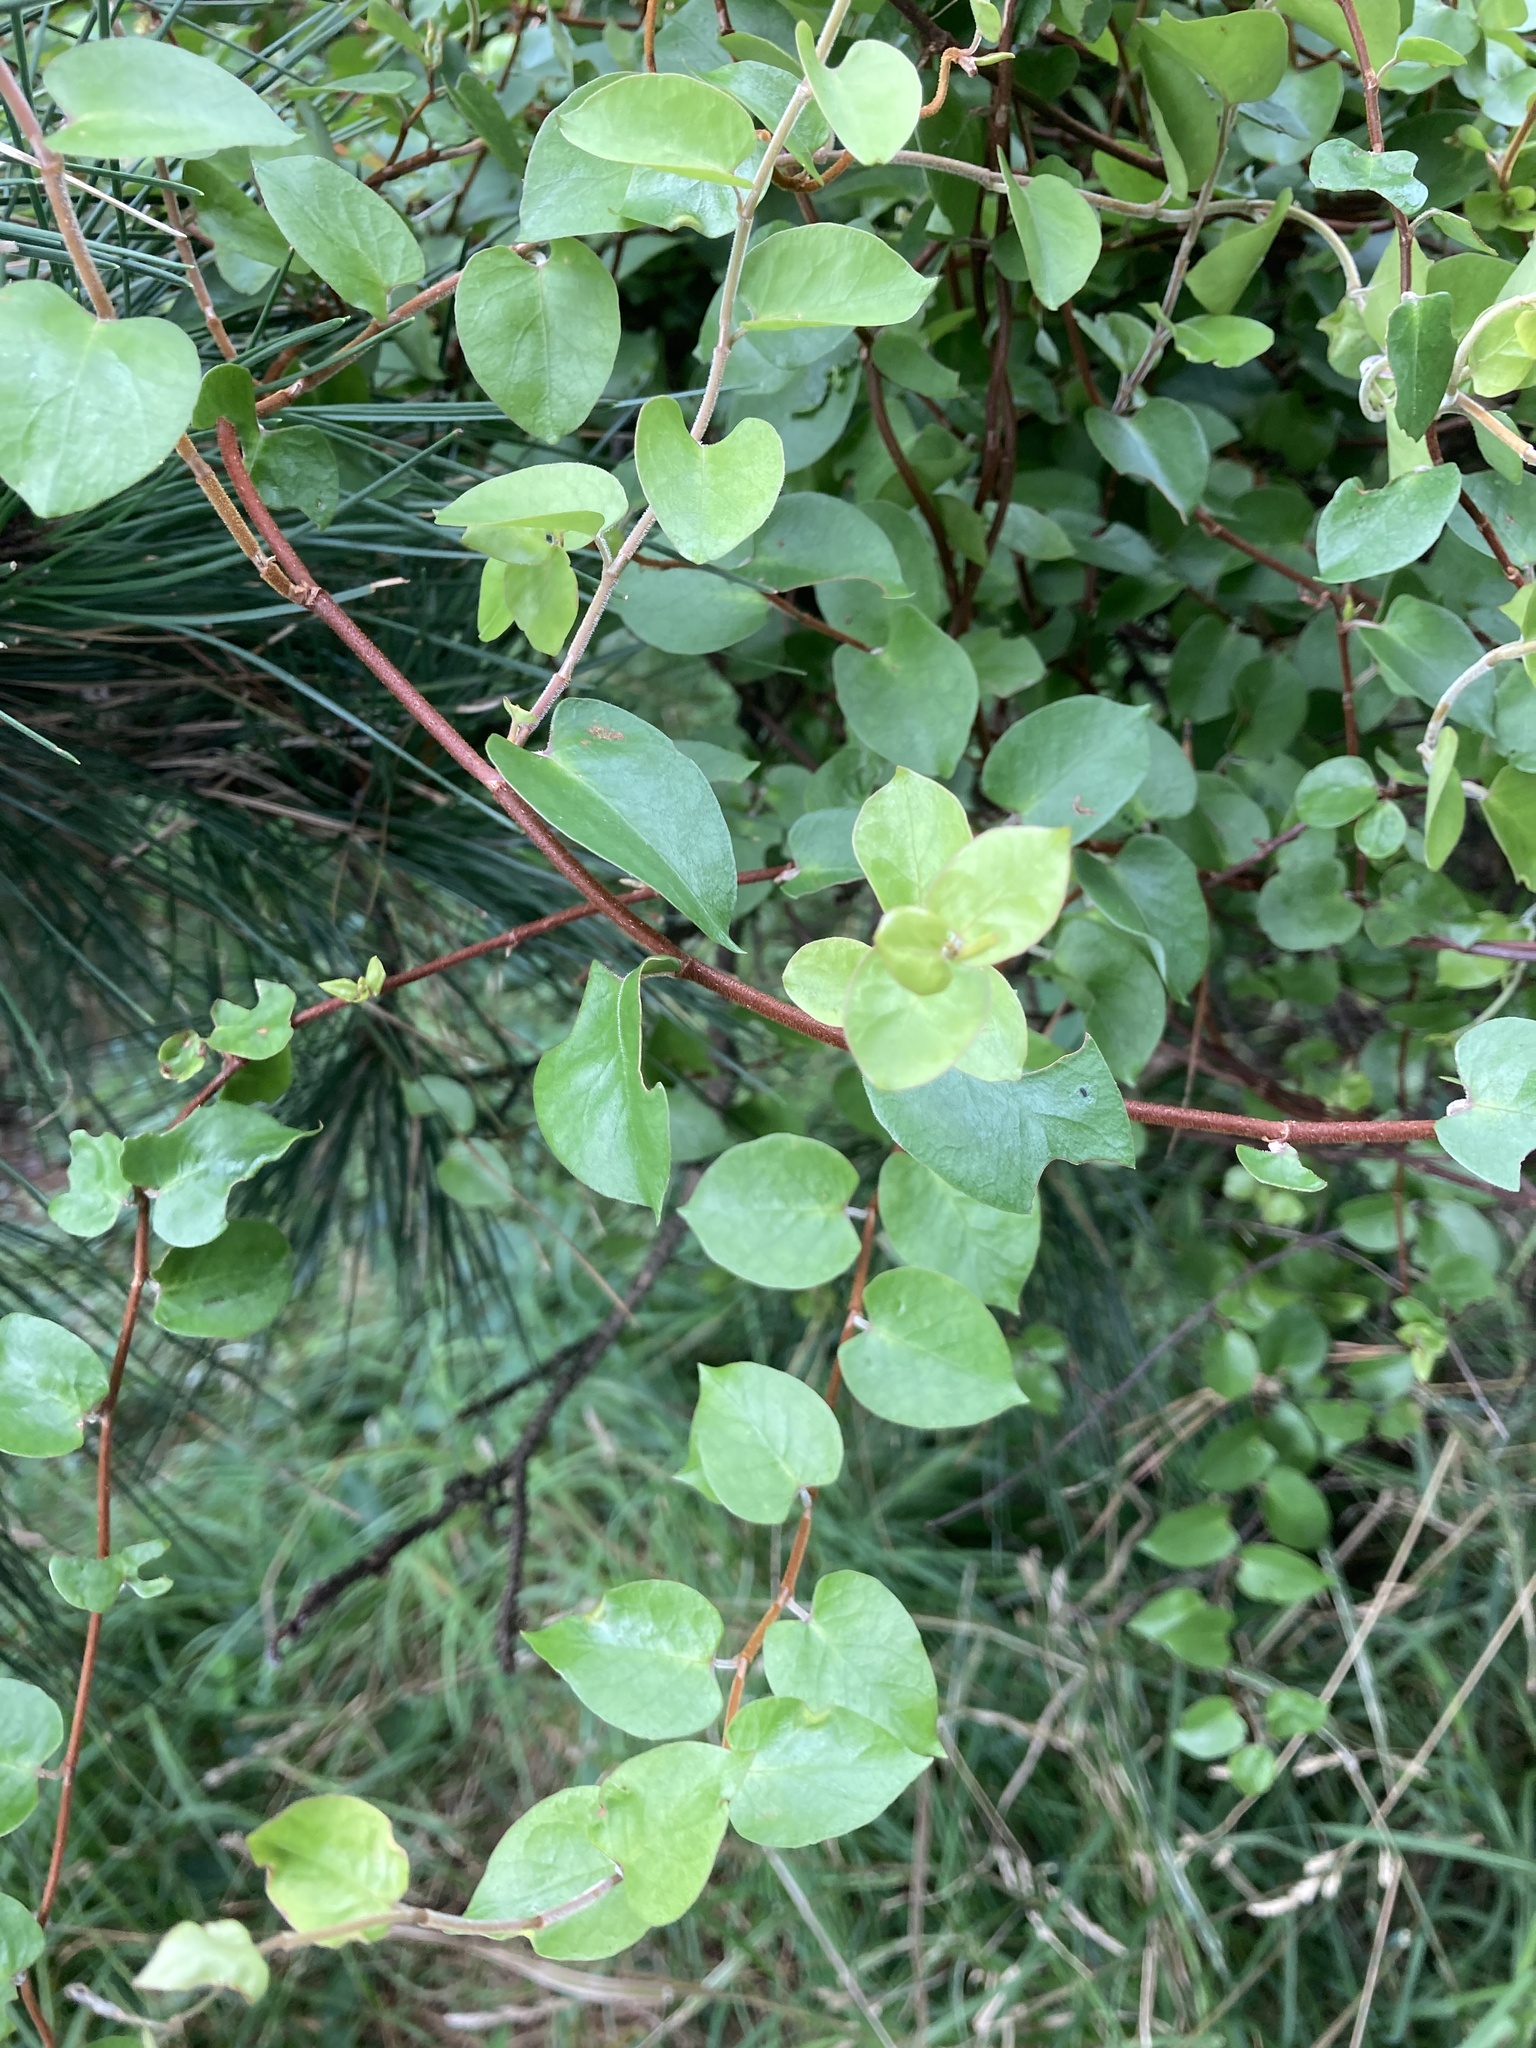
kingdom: Plantae
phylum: Tracheophyta
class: Magnoliopsida
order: Caryophyllales
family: Polygonaceae
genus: Muehlenbeckia
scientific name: Muehlenbeckia australis
